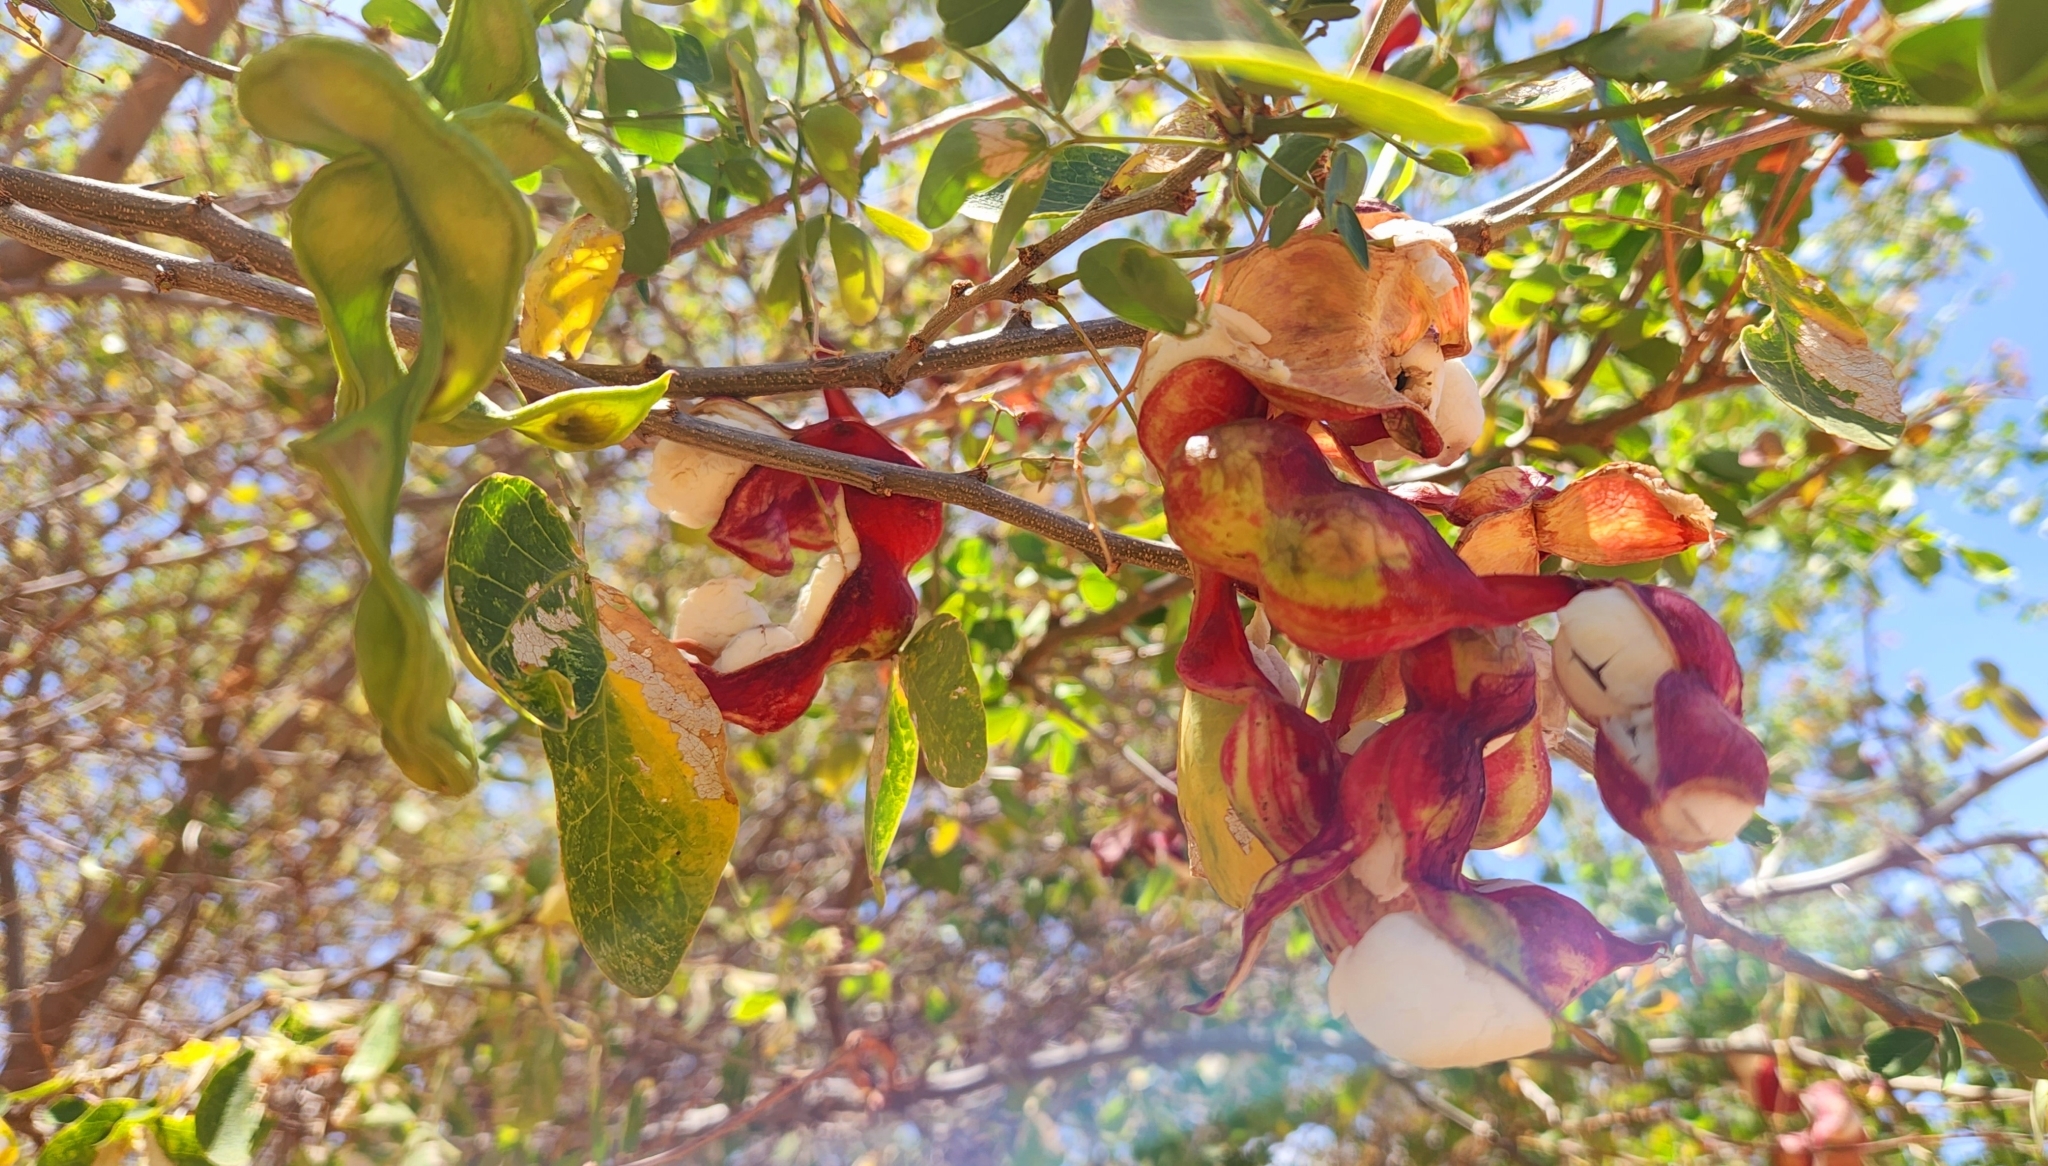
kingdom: Plantae
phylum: Tracheophyta
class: Magnoliopsida
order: Fabales
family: Fabaceae
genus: Pithecellobium
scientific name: Pithecellobium dulce
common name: Monkeypod
